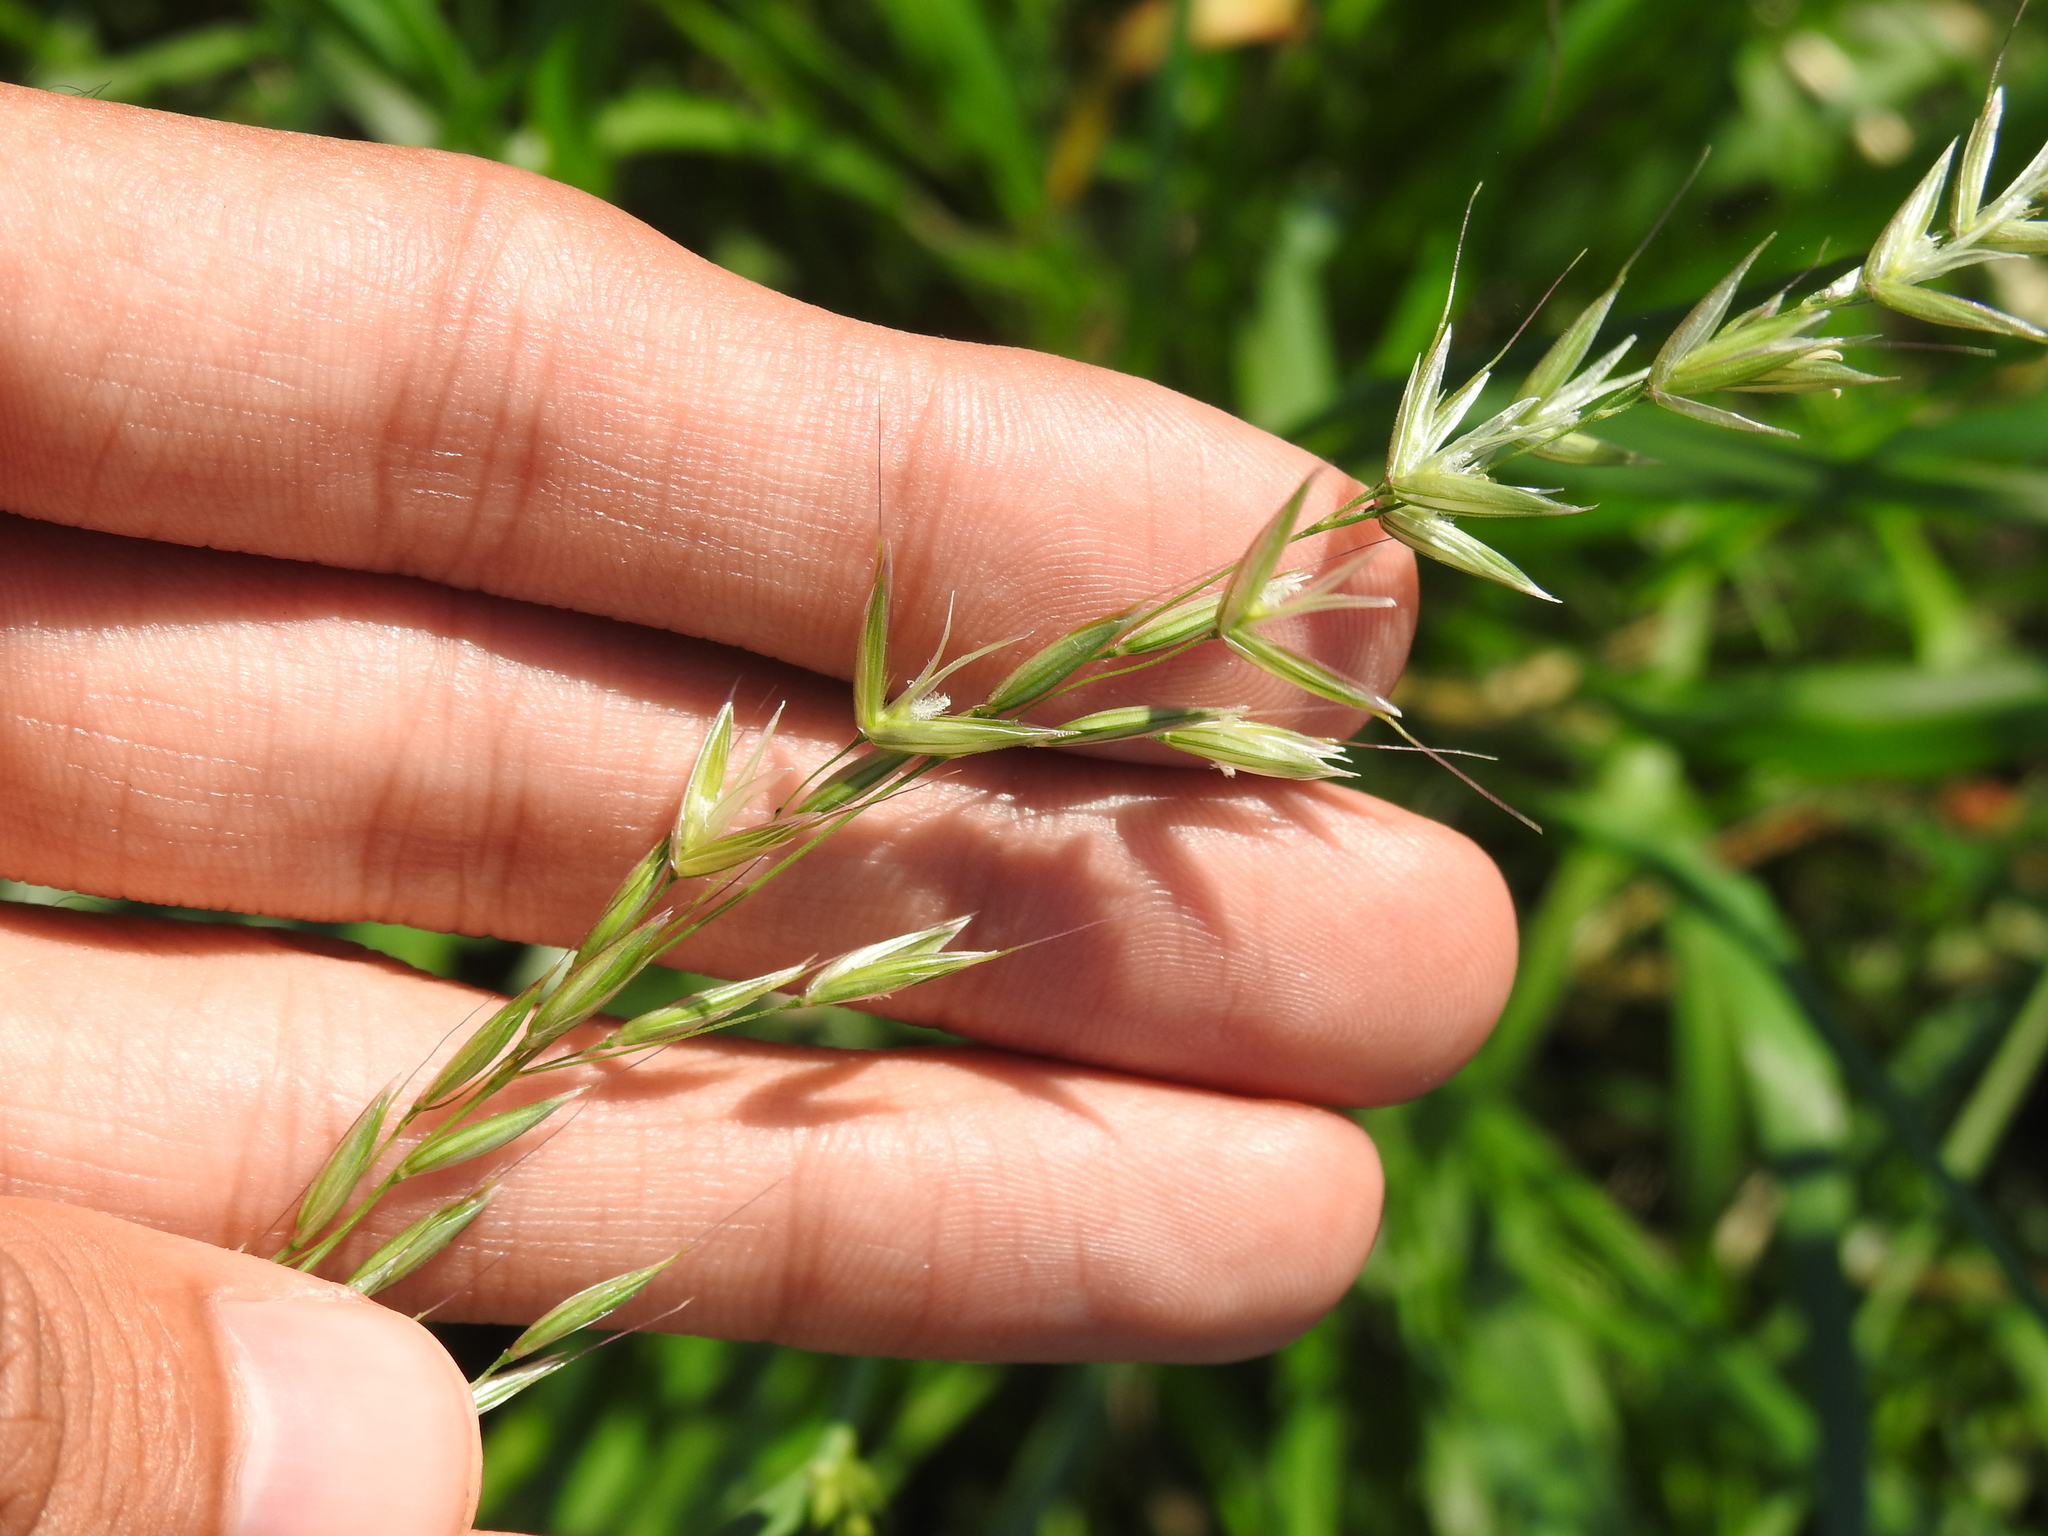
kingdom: Plantae
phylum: Tracheophyta
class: Liliopsida
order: Poales
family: Poaceae
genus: Arrhenatherum
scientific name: Arrhenatherum elatius
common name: Tall oatgrass
